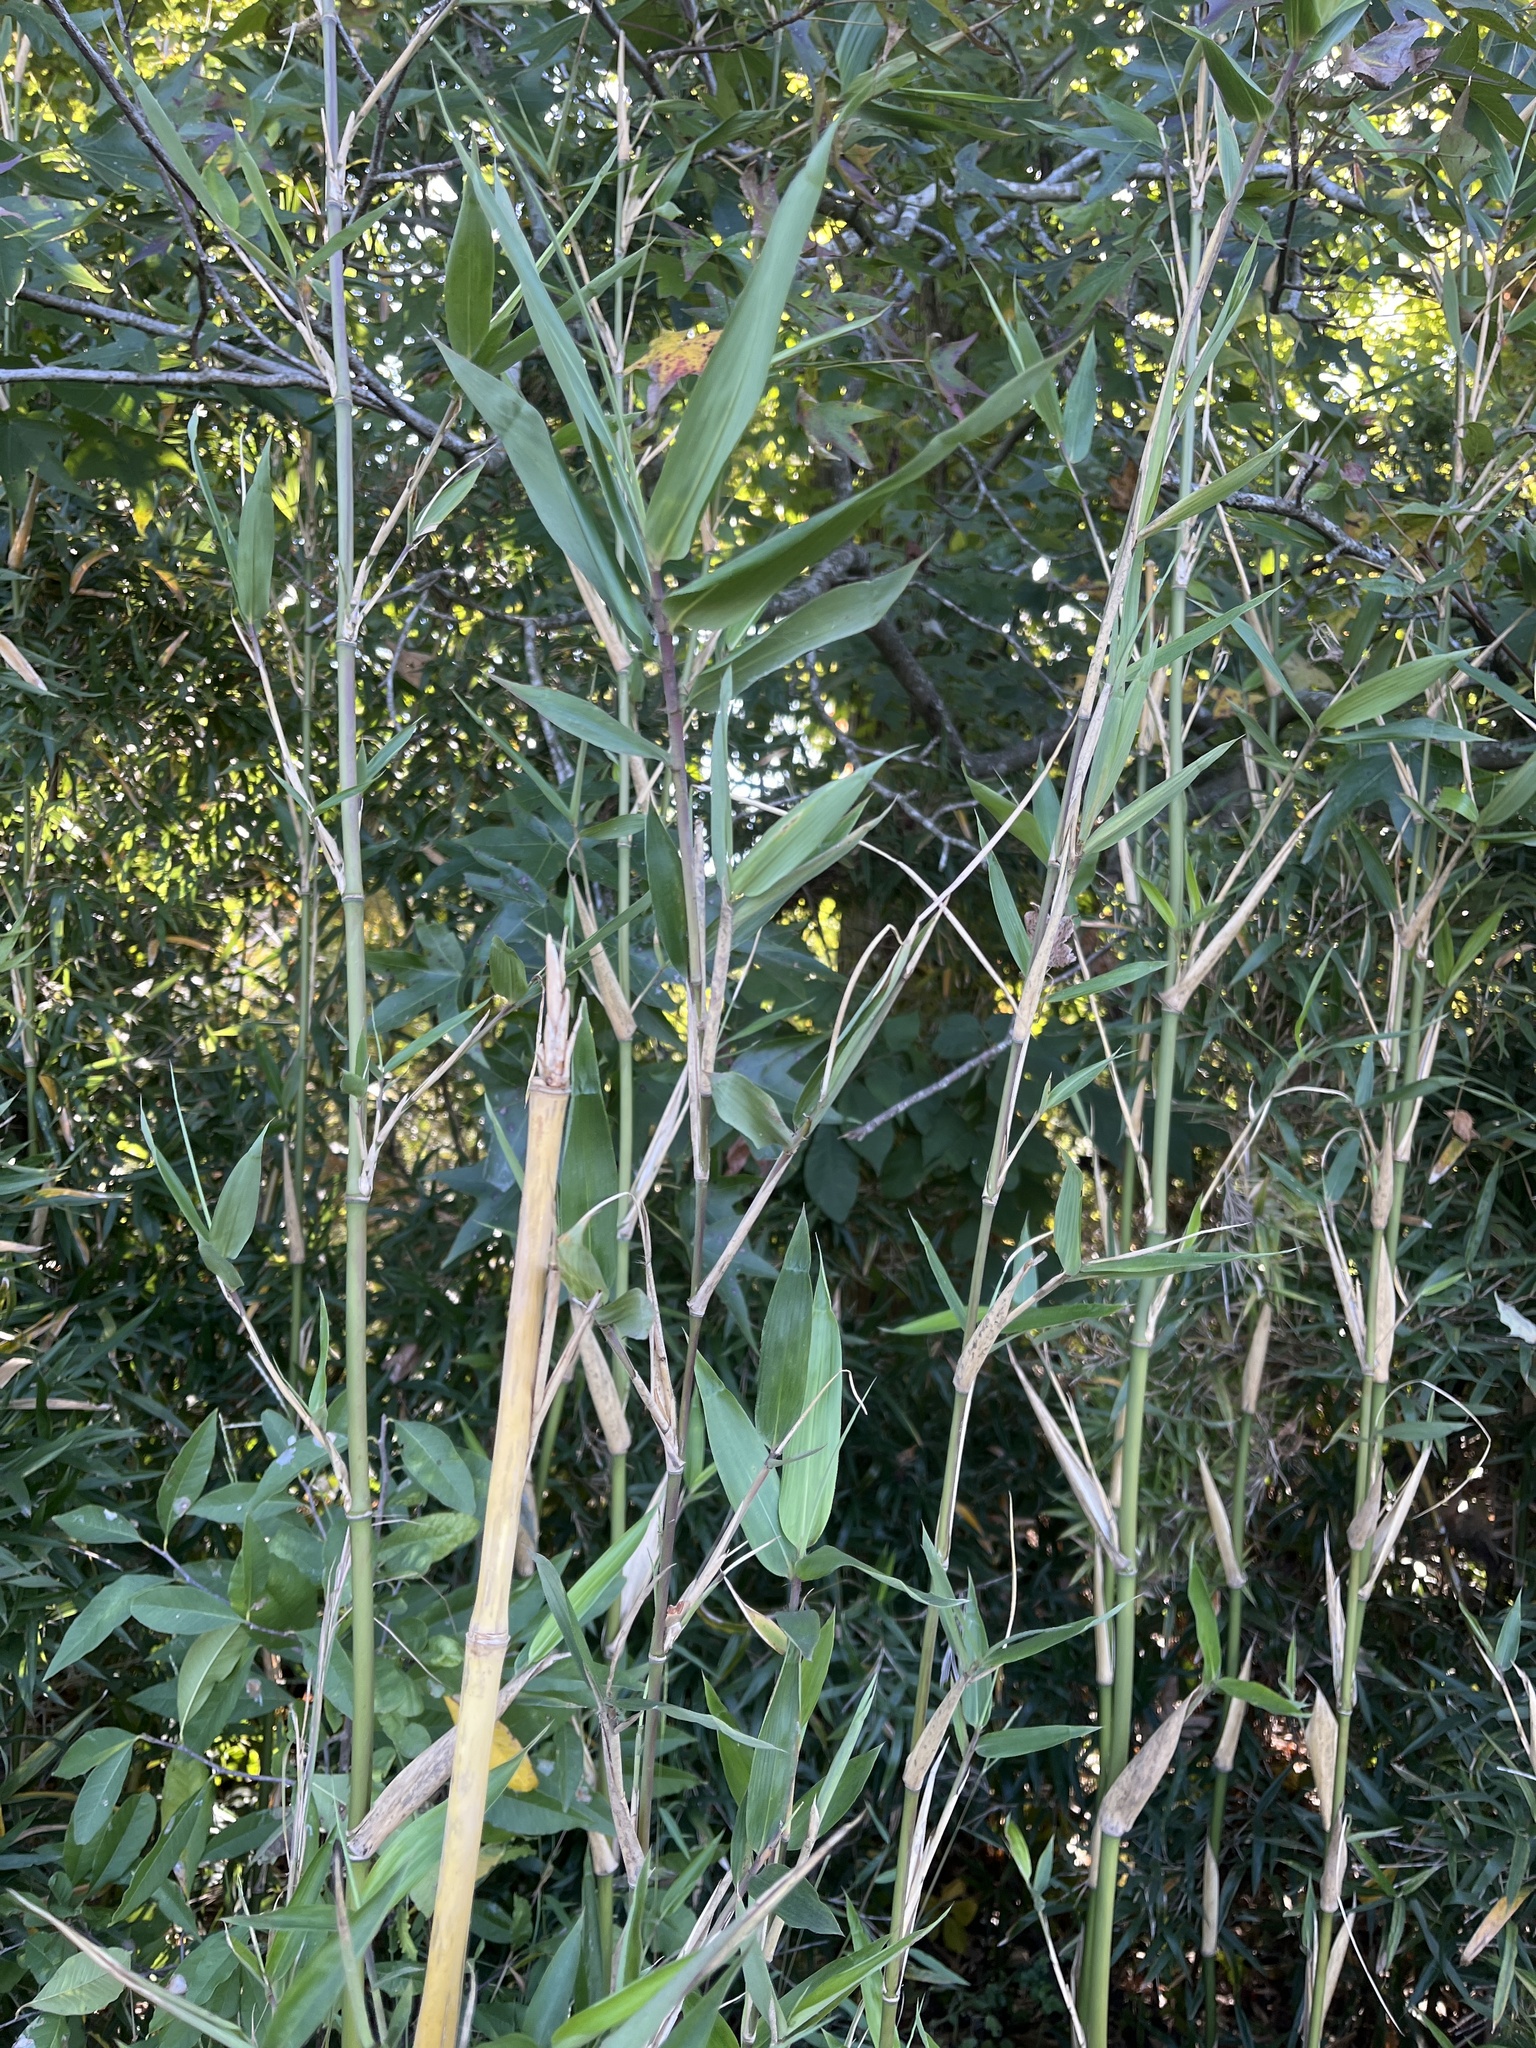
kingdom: Plantae
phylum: Tracheophyta
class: Liliopsida
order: Poales
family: Poaceae
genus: Arundinaria
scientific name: Arundinaria gigantea
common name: Giant cane
